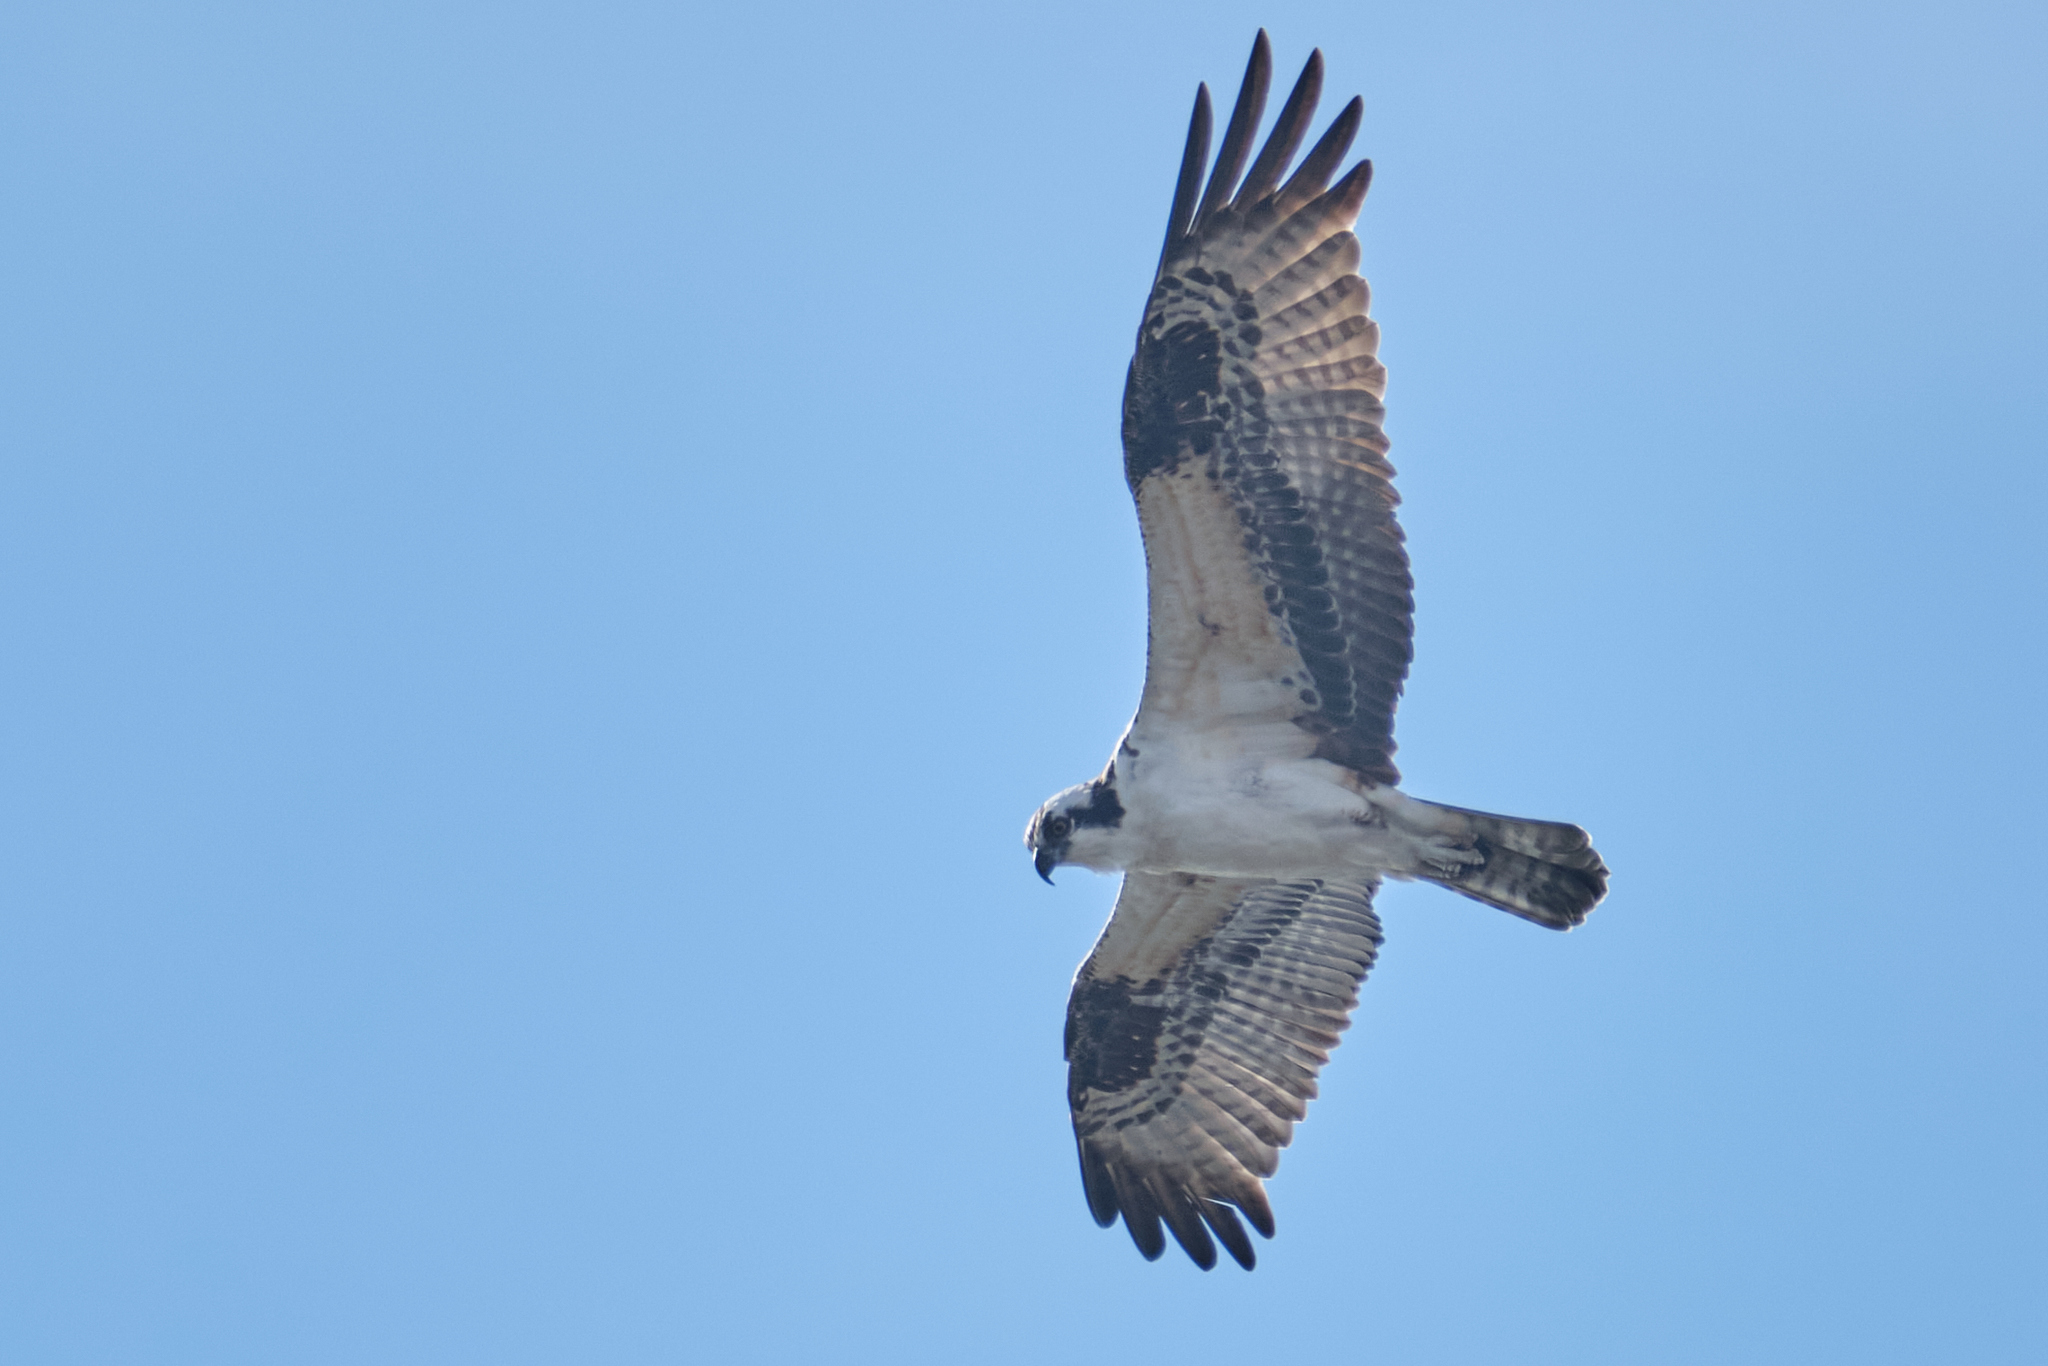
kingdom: Animalia
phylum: Chordata
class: Aves
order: Accipitriformes
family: Pandionidae
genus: Pandion
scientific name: Pandion haliaetus
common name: Osprey
